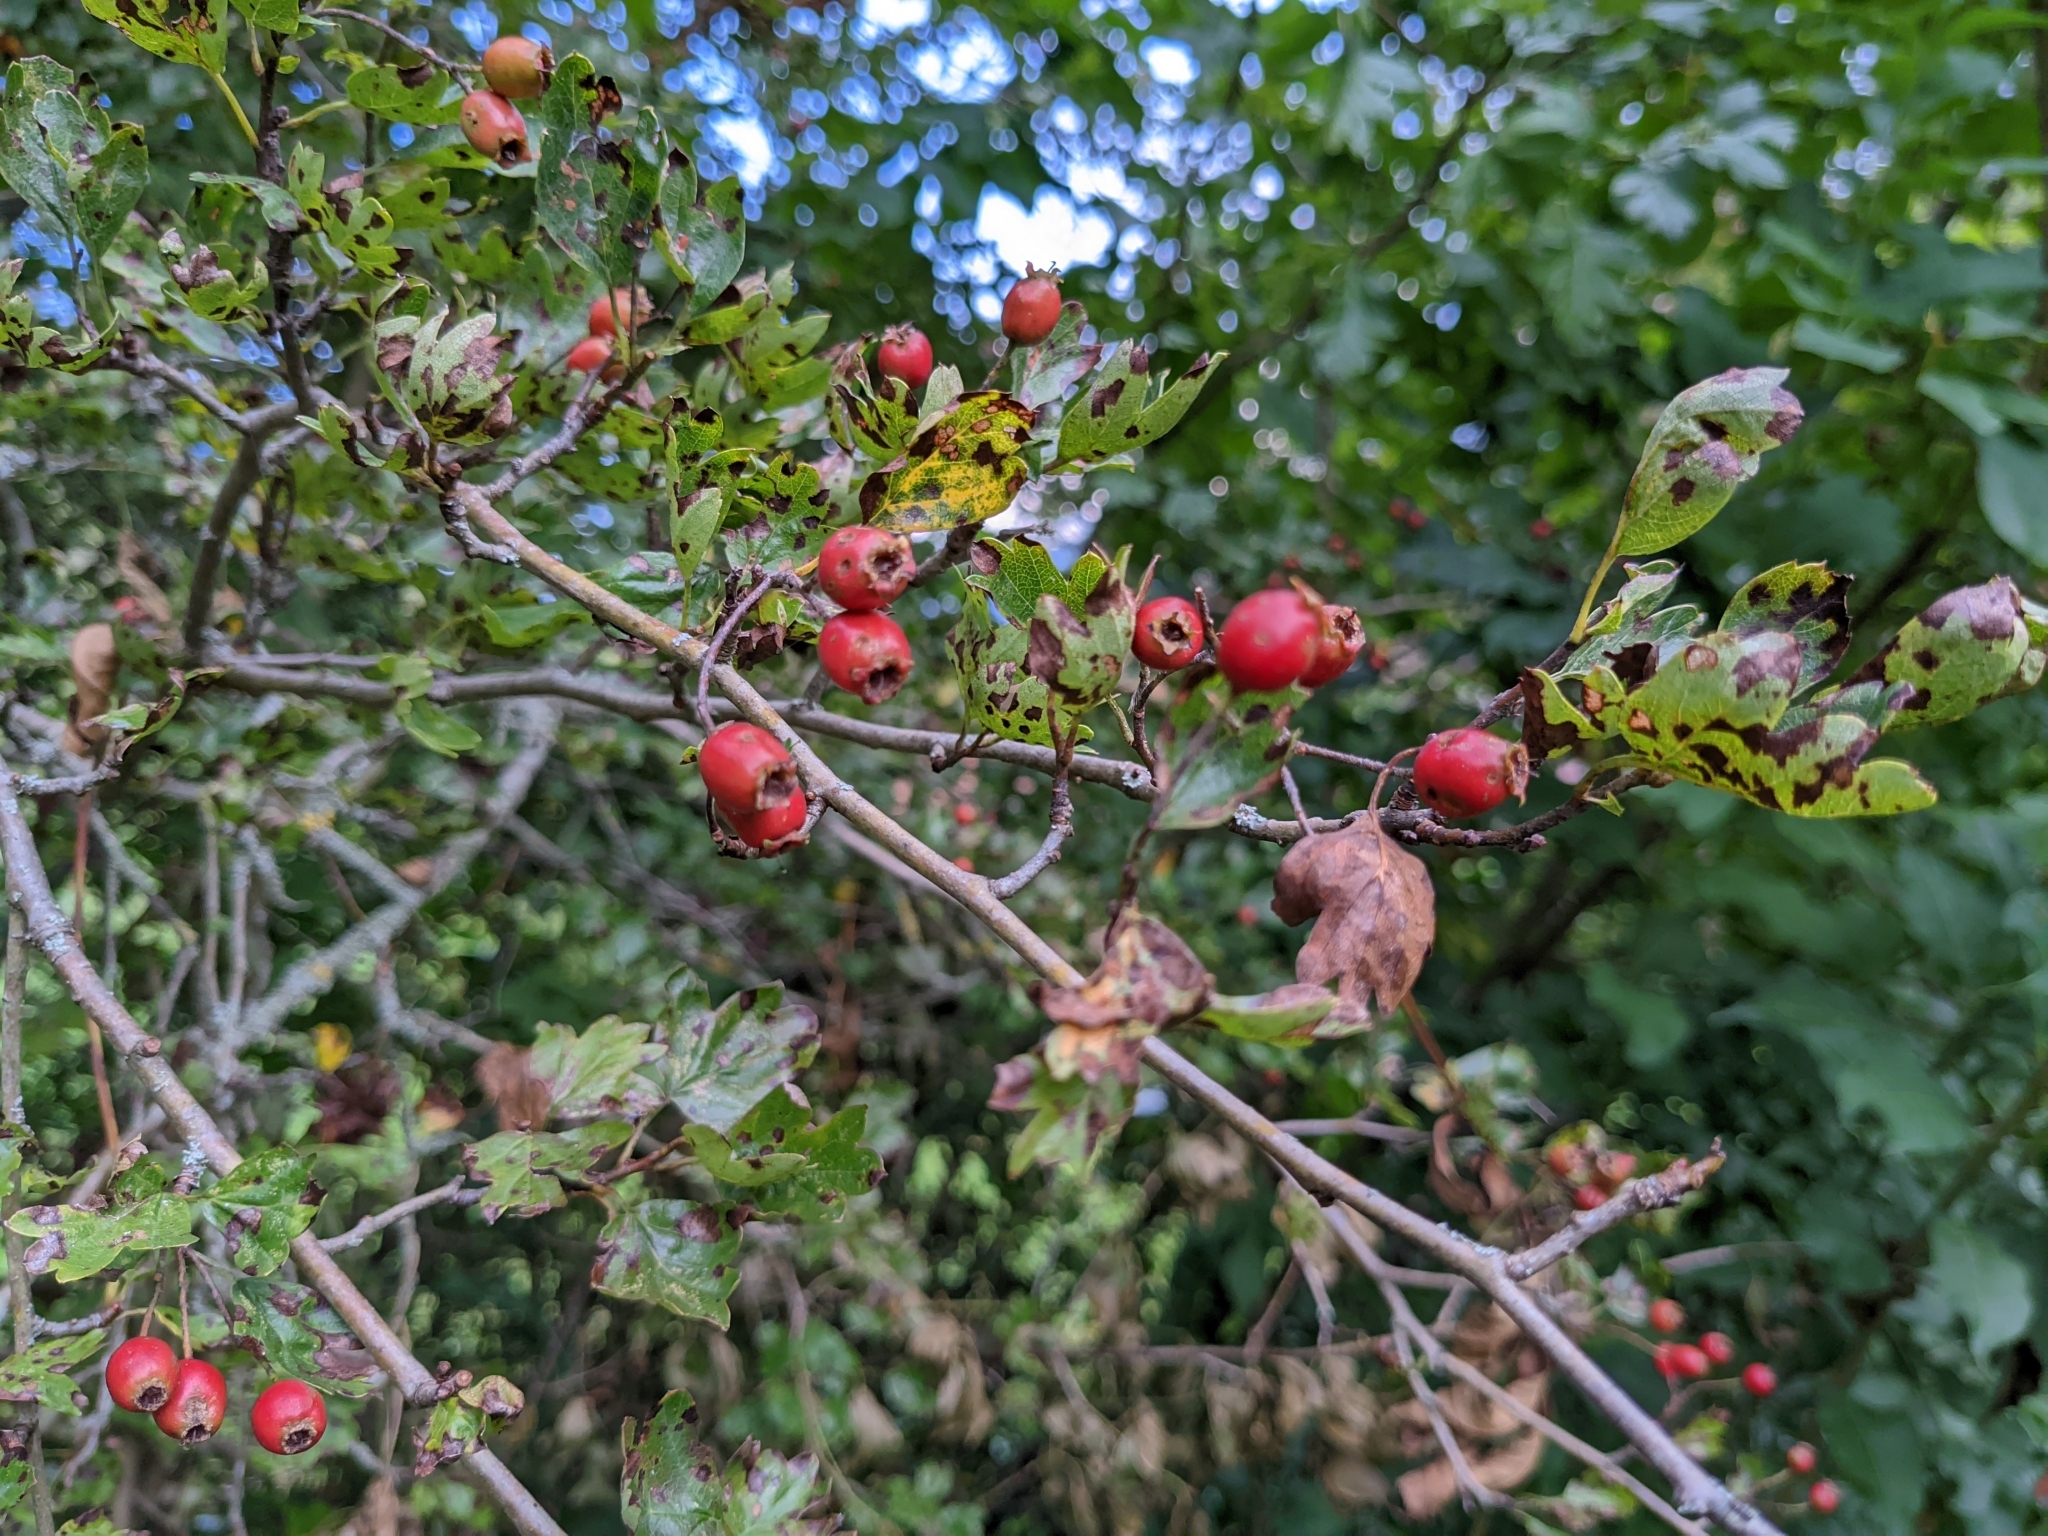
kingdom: Plantae
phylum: Tracheophyta
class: Magnoliopsida
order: Rosales
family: Rosaceae
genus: Crataegus
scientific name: Crataegus monogyna
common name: Hawthorn
